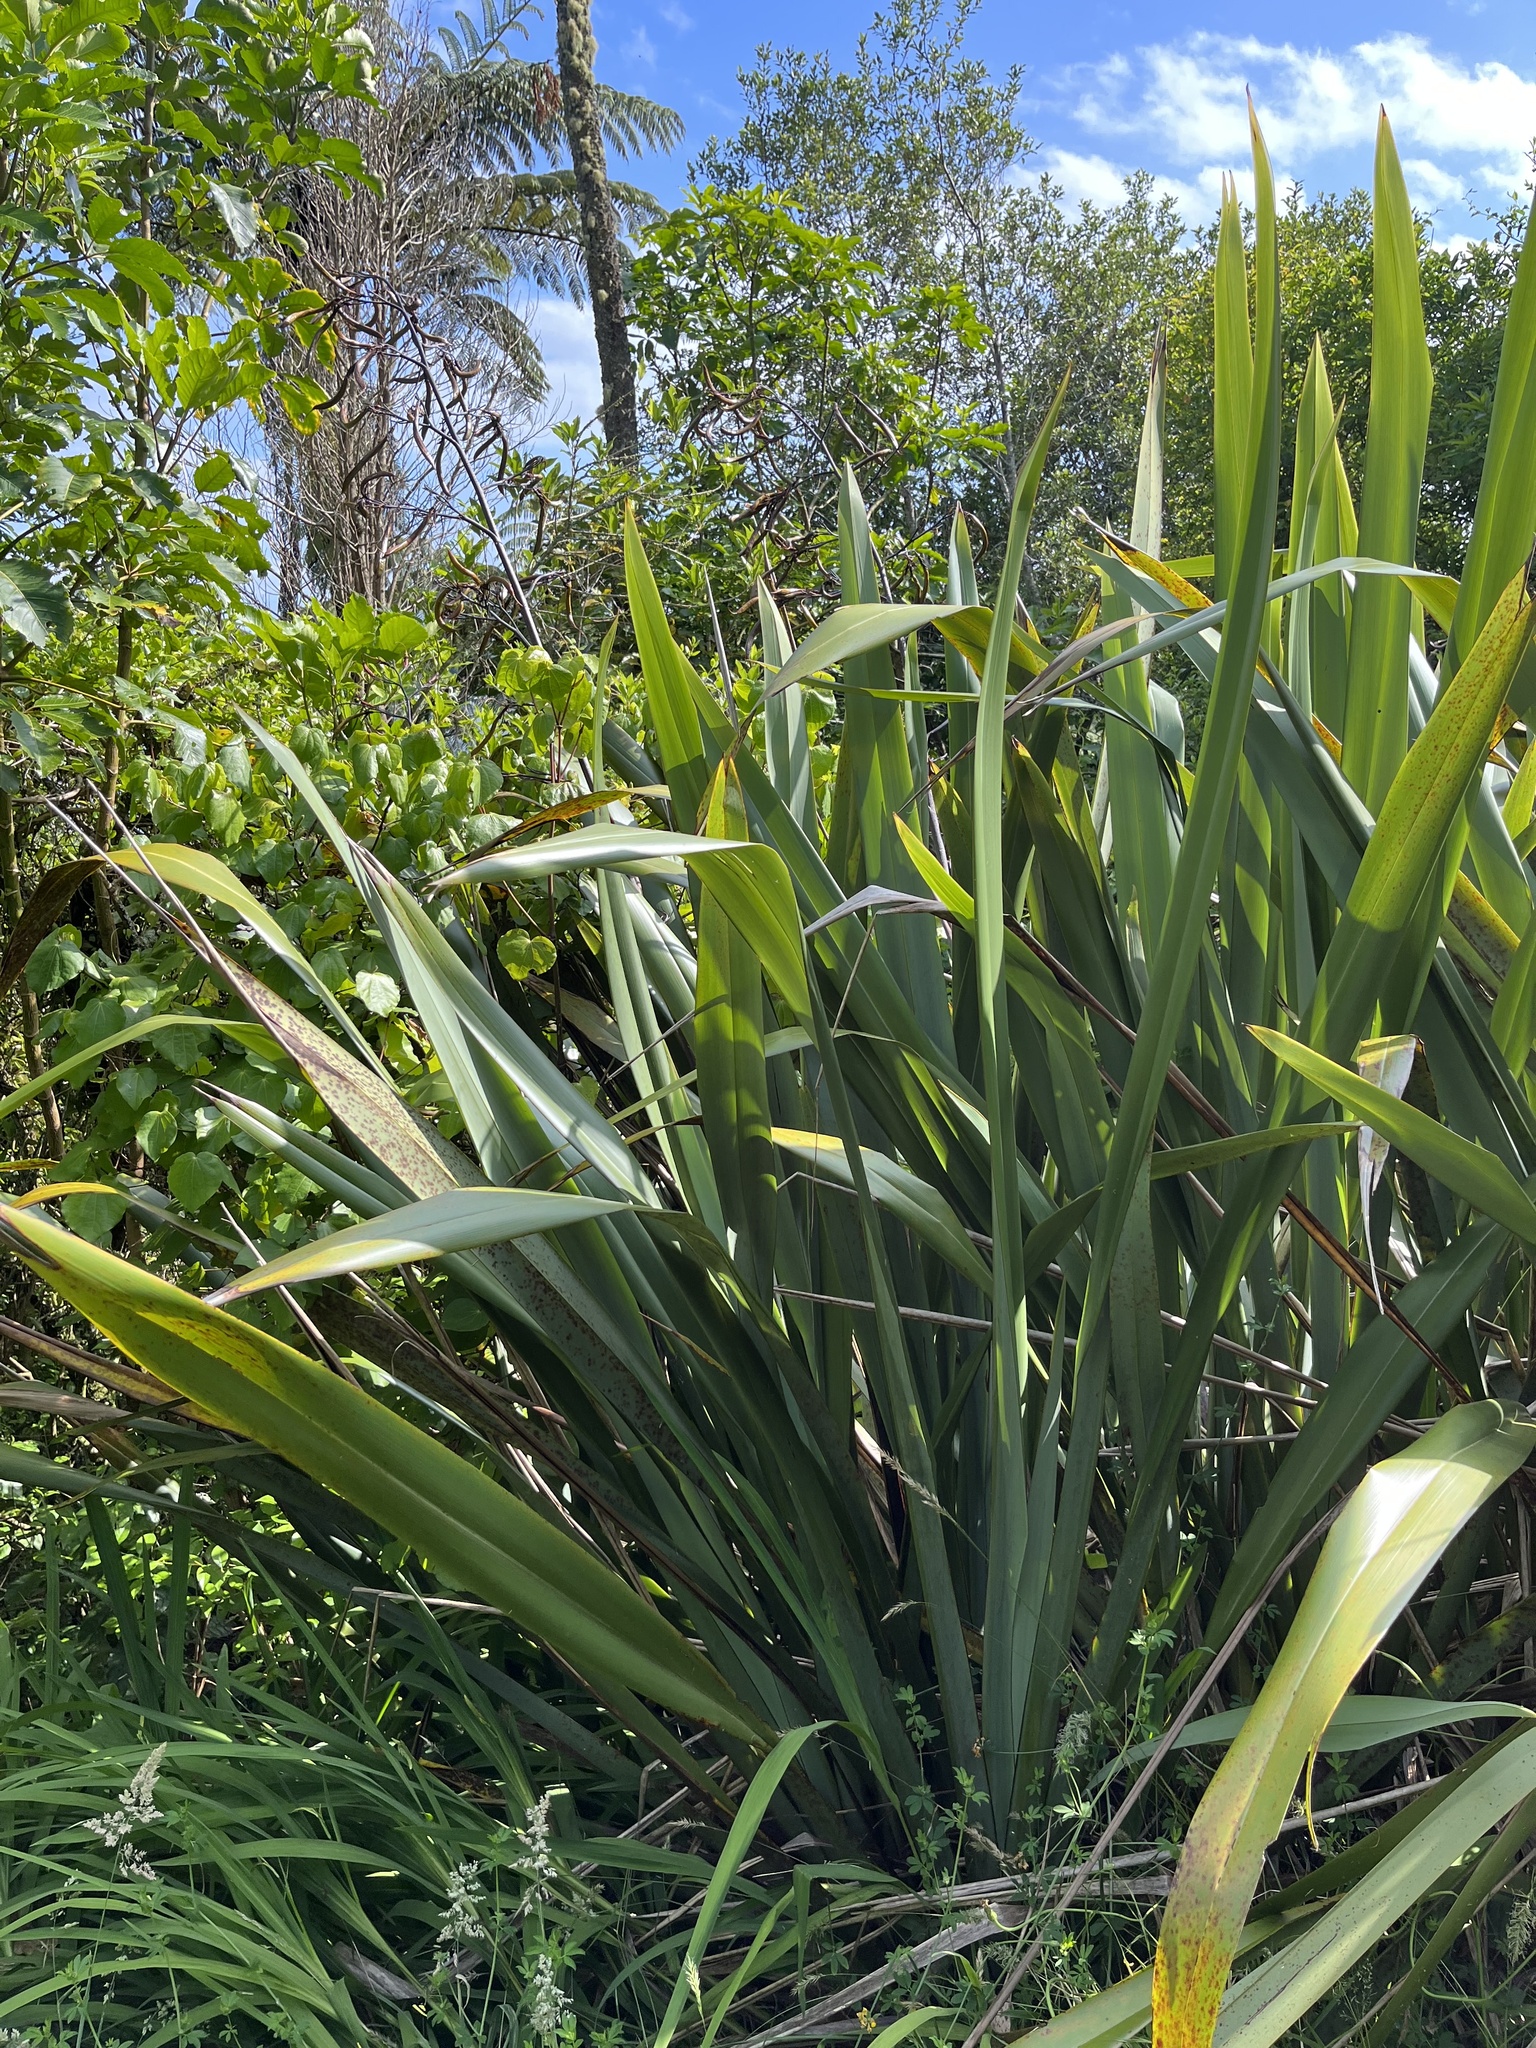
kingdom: Plantae
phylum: Tracheophyta
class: Liliopsida
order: Asparagales
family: Asphodelaceae
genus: Phormium
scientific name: Phormium tenax
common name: New zealand flax
